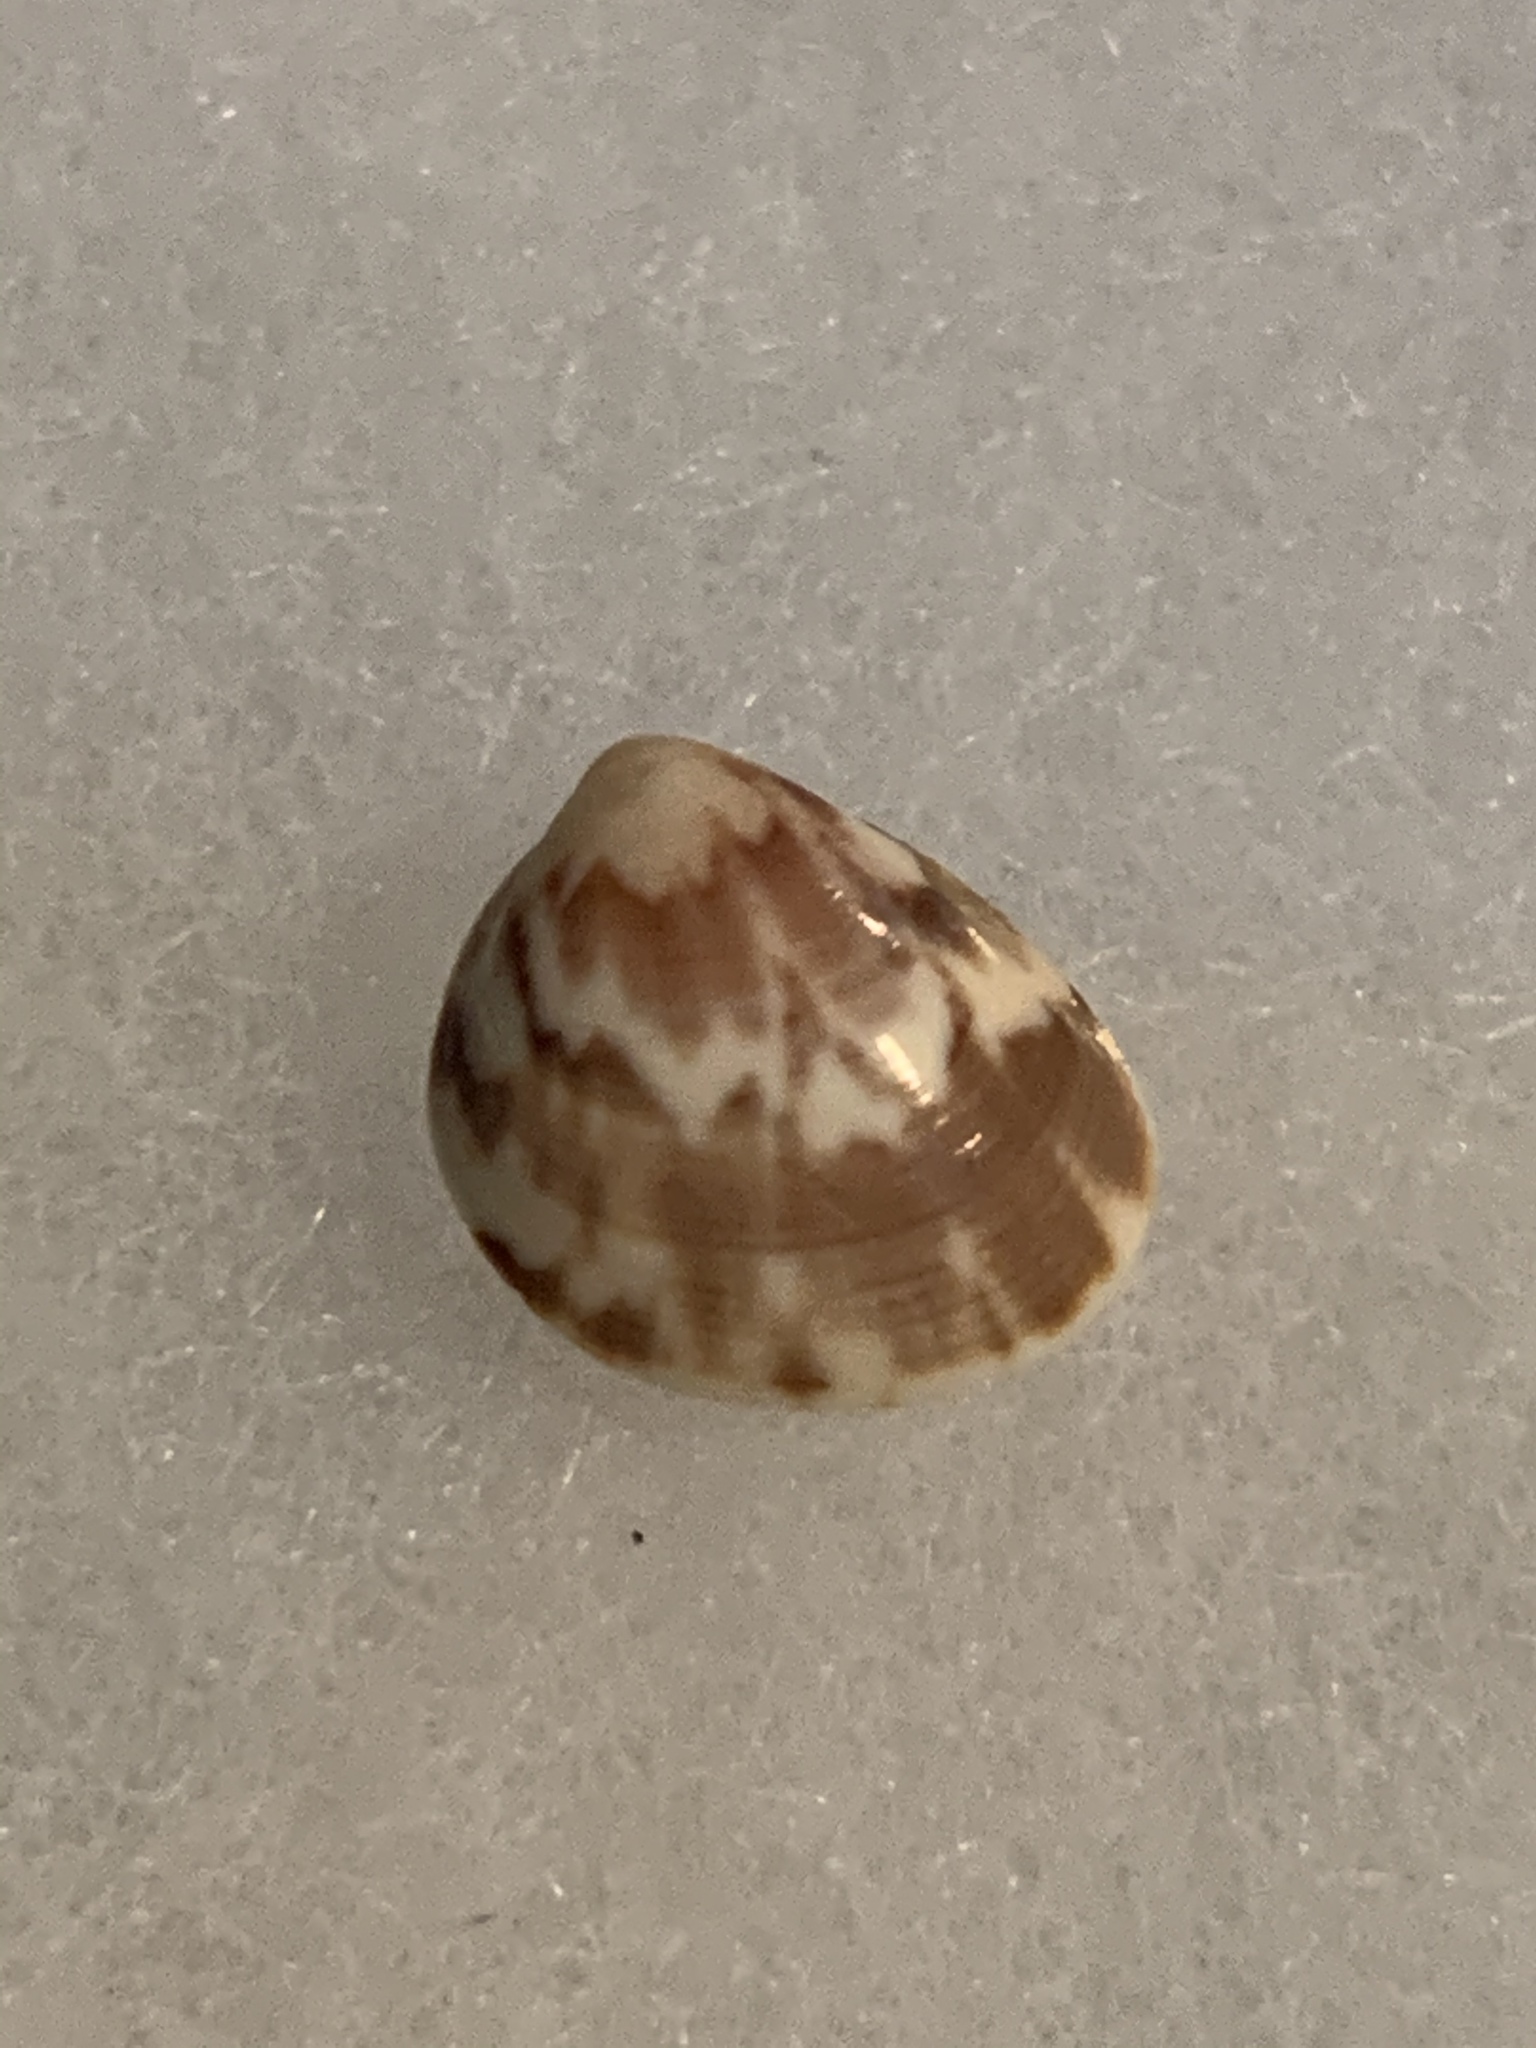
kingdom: Animalia
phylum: Mollusca
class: Bivalvia
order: Cardiida
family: Cardiidae
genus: Laevicardium
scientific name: Laevicardium pictum
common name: Painted eggcockle
